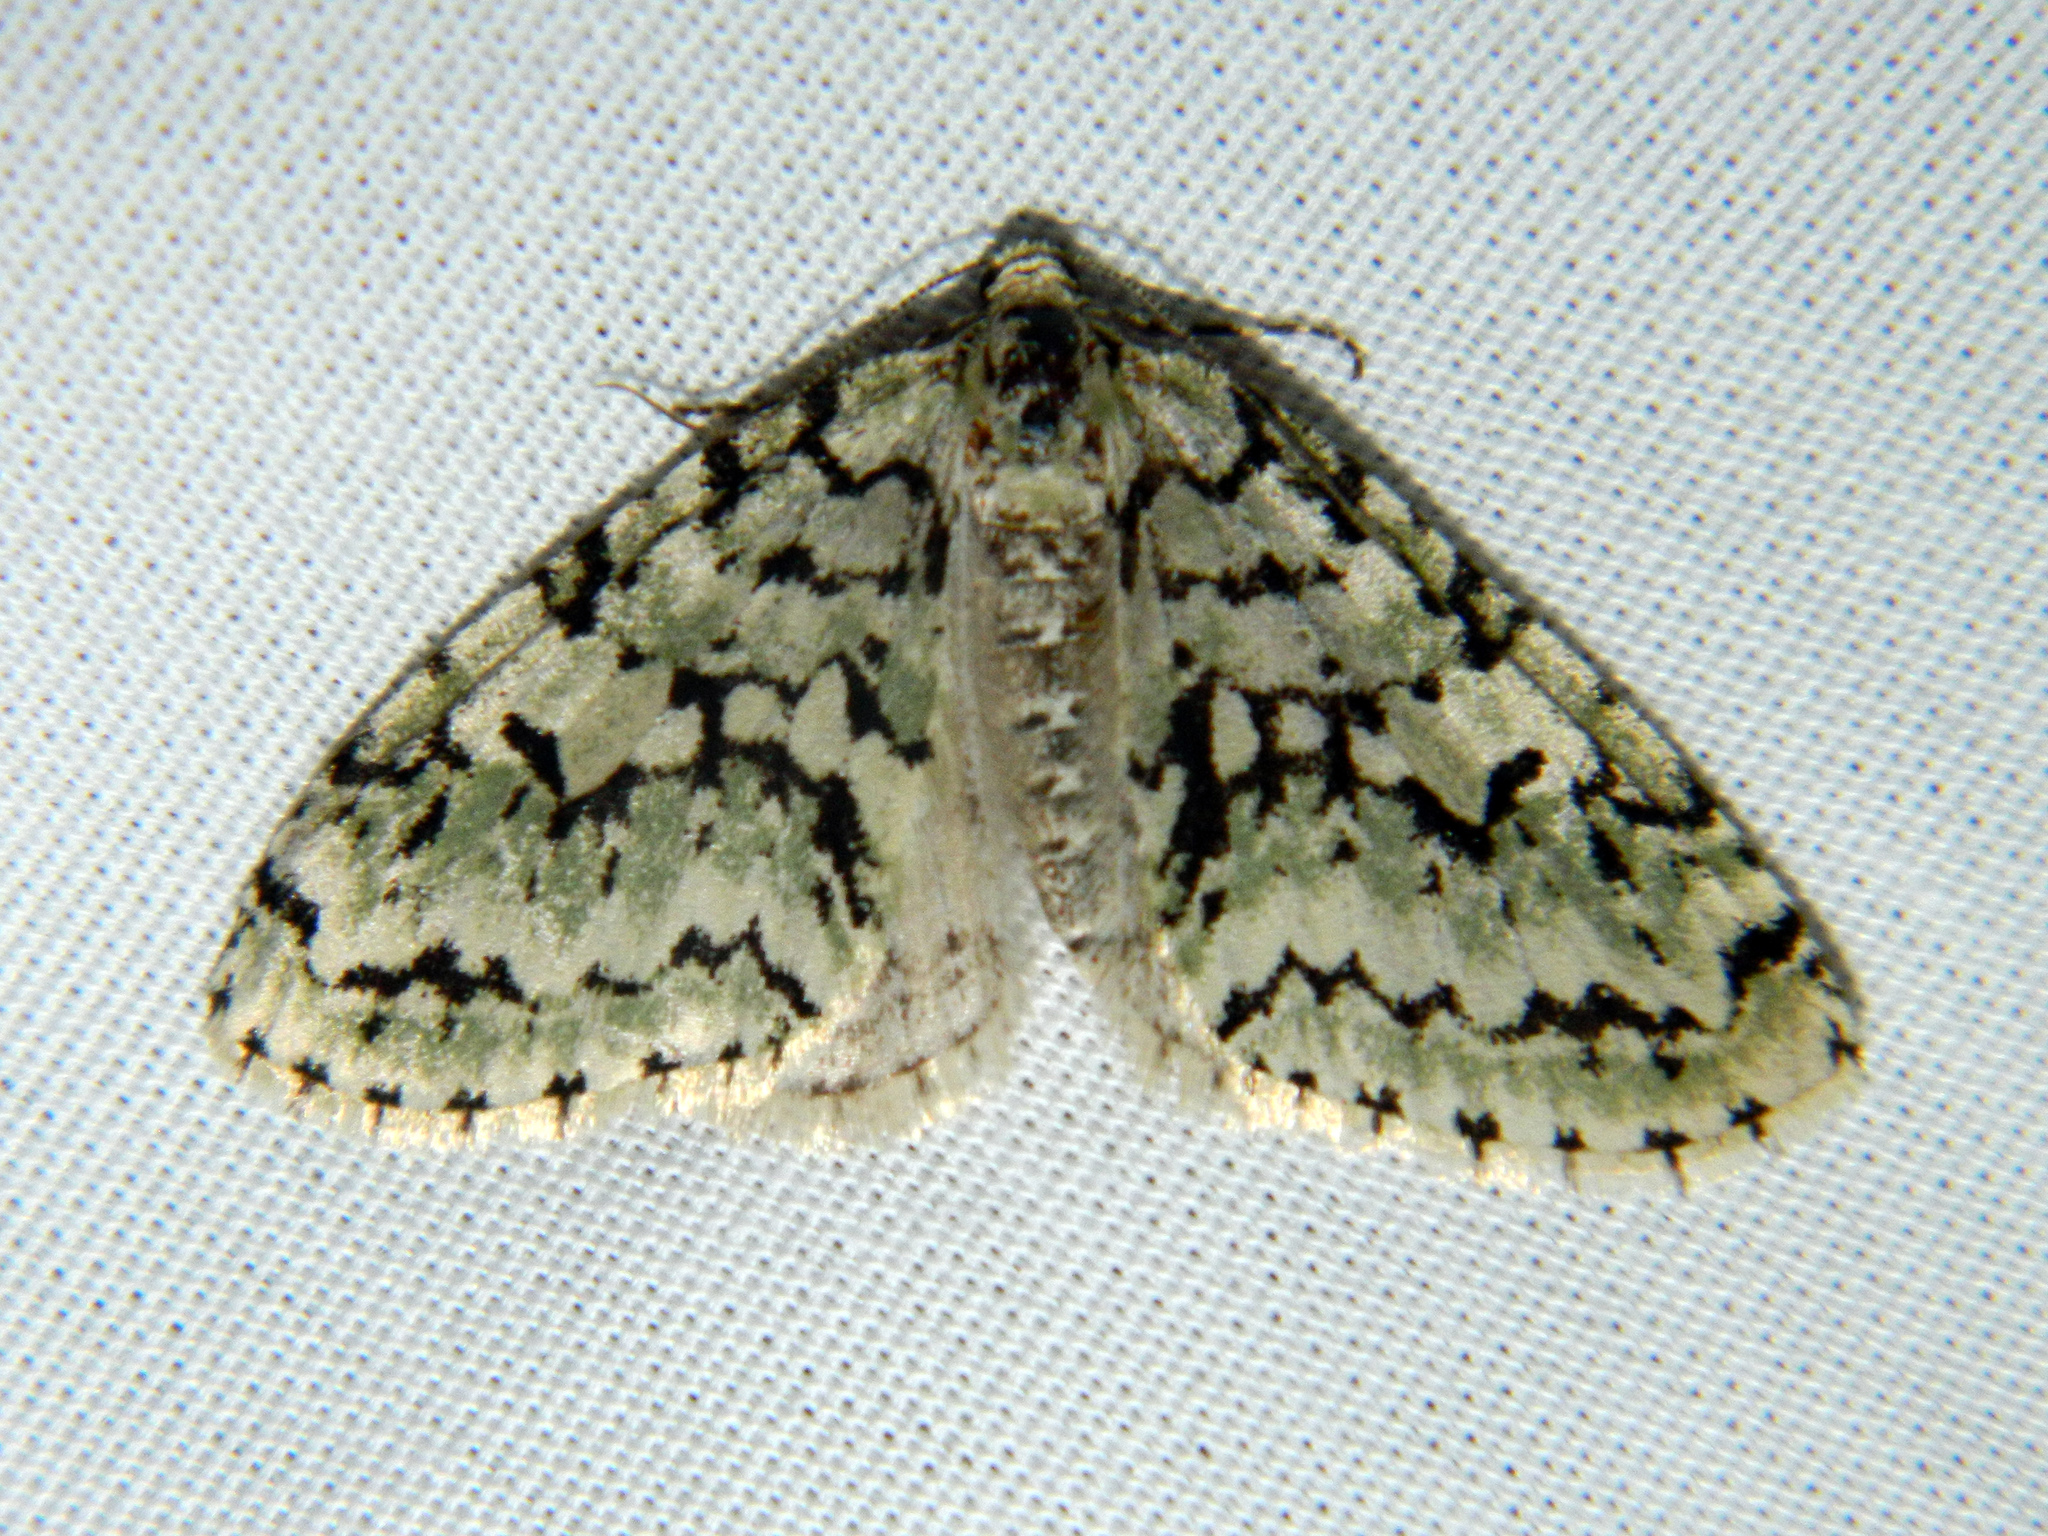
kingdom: Animalia
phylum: Arthropoda
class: Insecta
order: Lepidoptera
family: Geometridae
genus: Cladara
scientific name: Cladara atroliturata
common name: Scribbler
